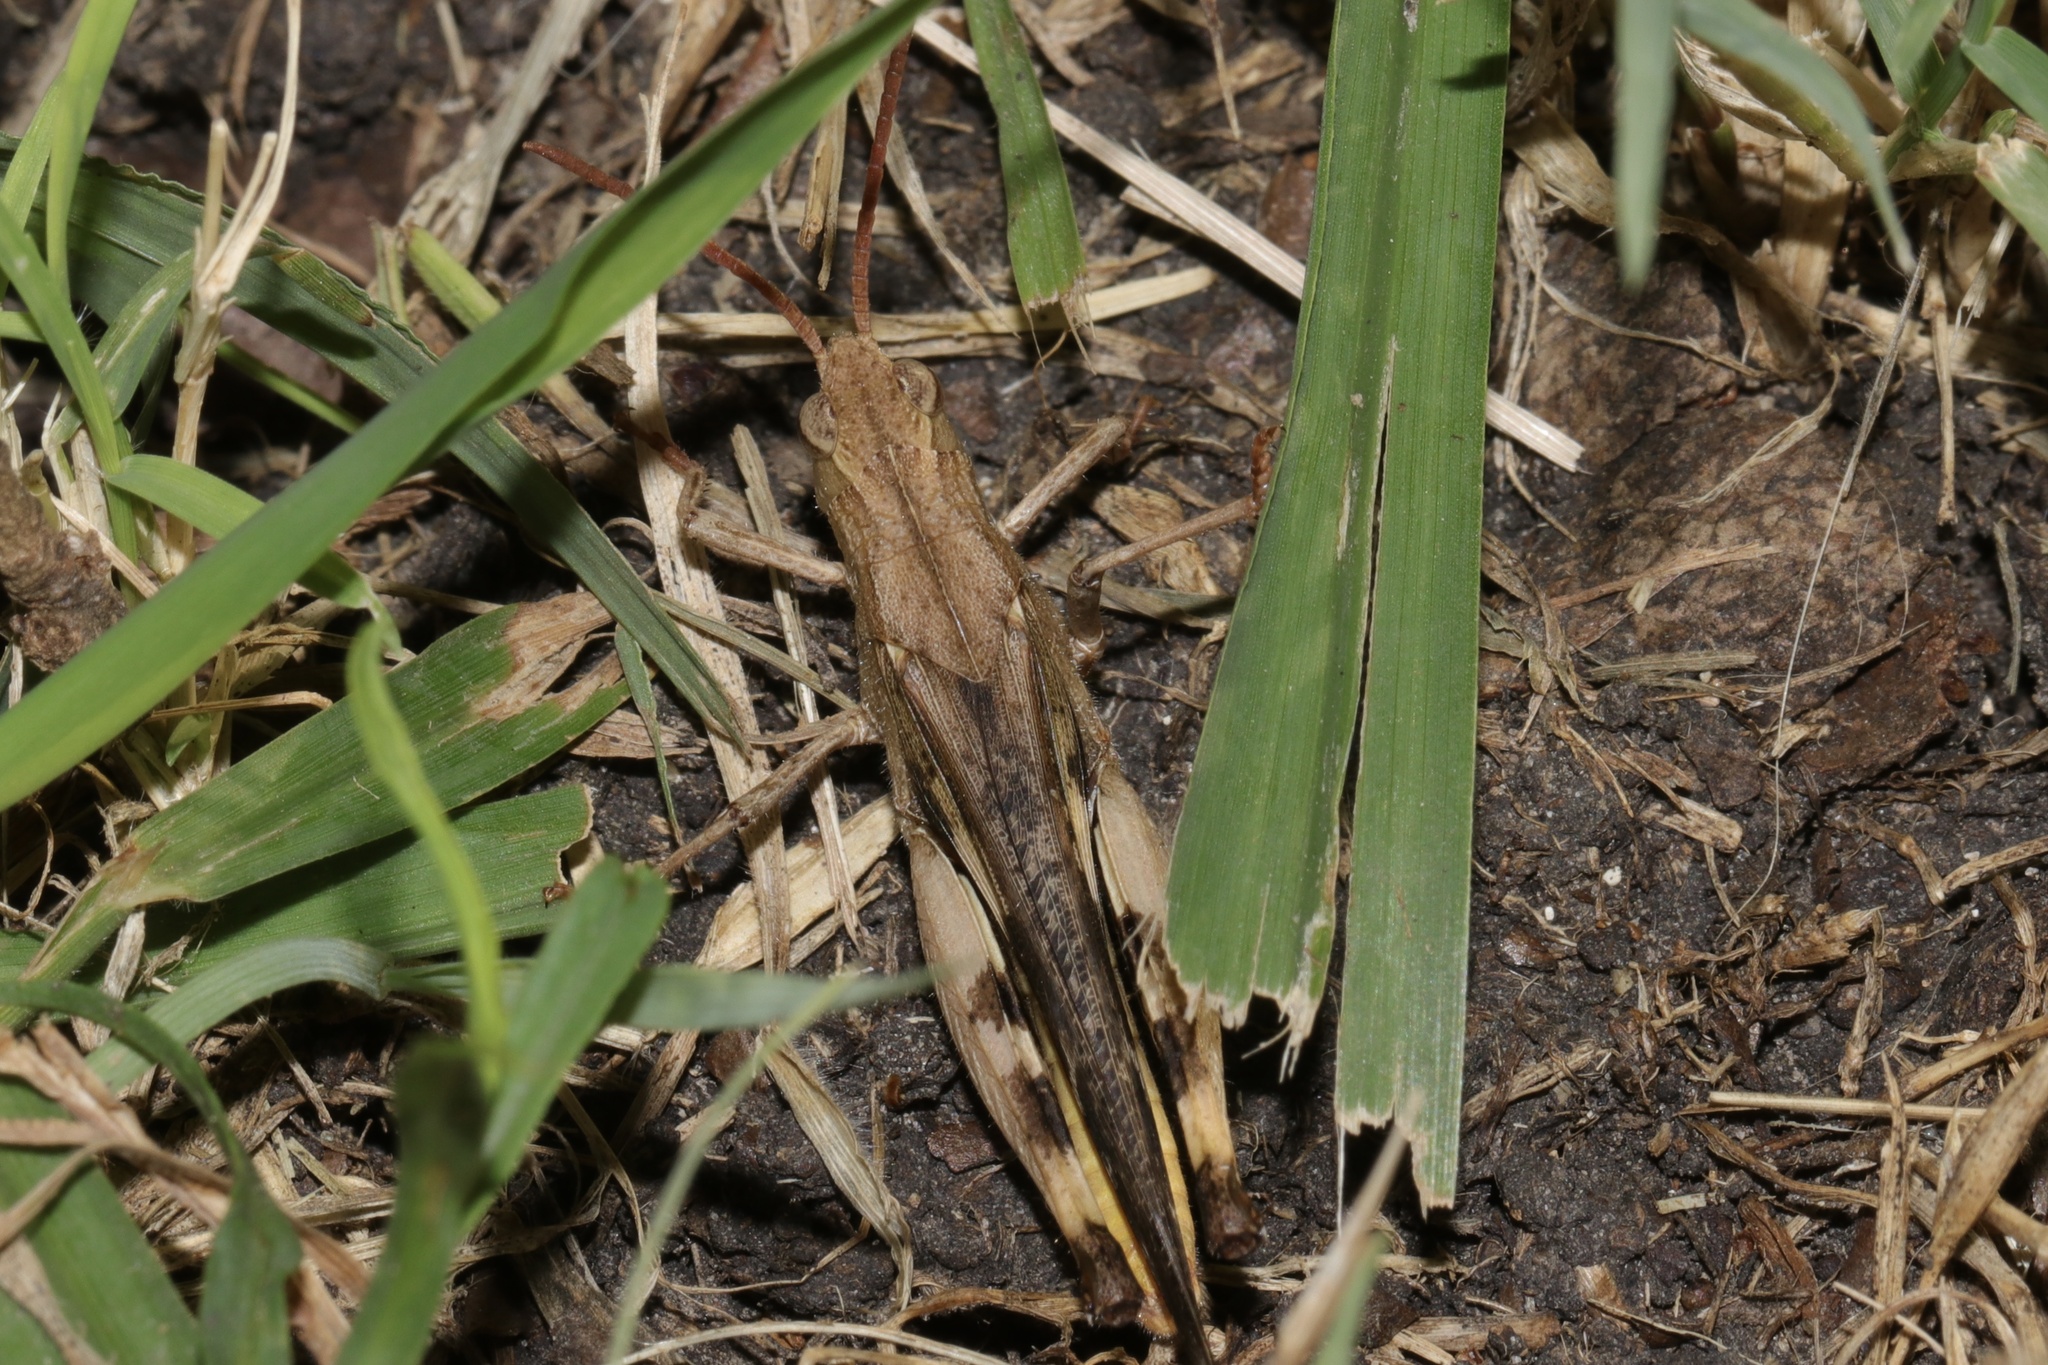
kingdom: Animalia
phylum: Arthropoda
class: Insecta
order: Orthoptera
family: Acrididae
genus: Chortophaga
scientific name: Chortophaga viridifasciata
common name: Green-striped grasshopper
